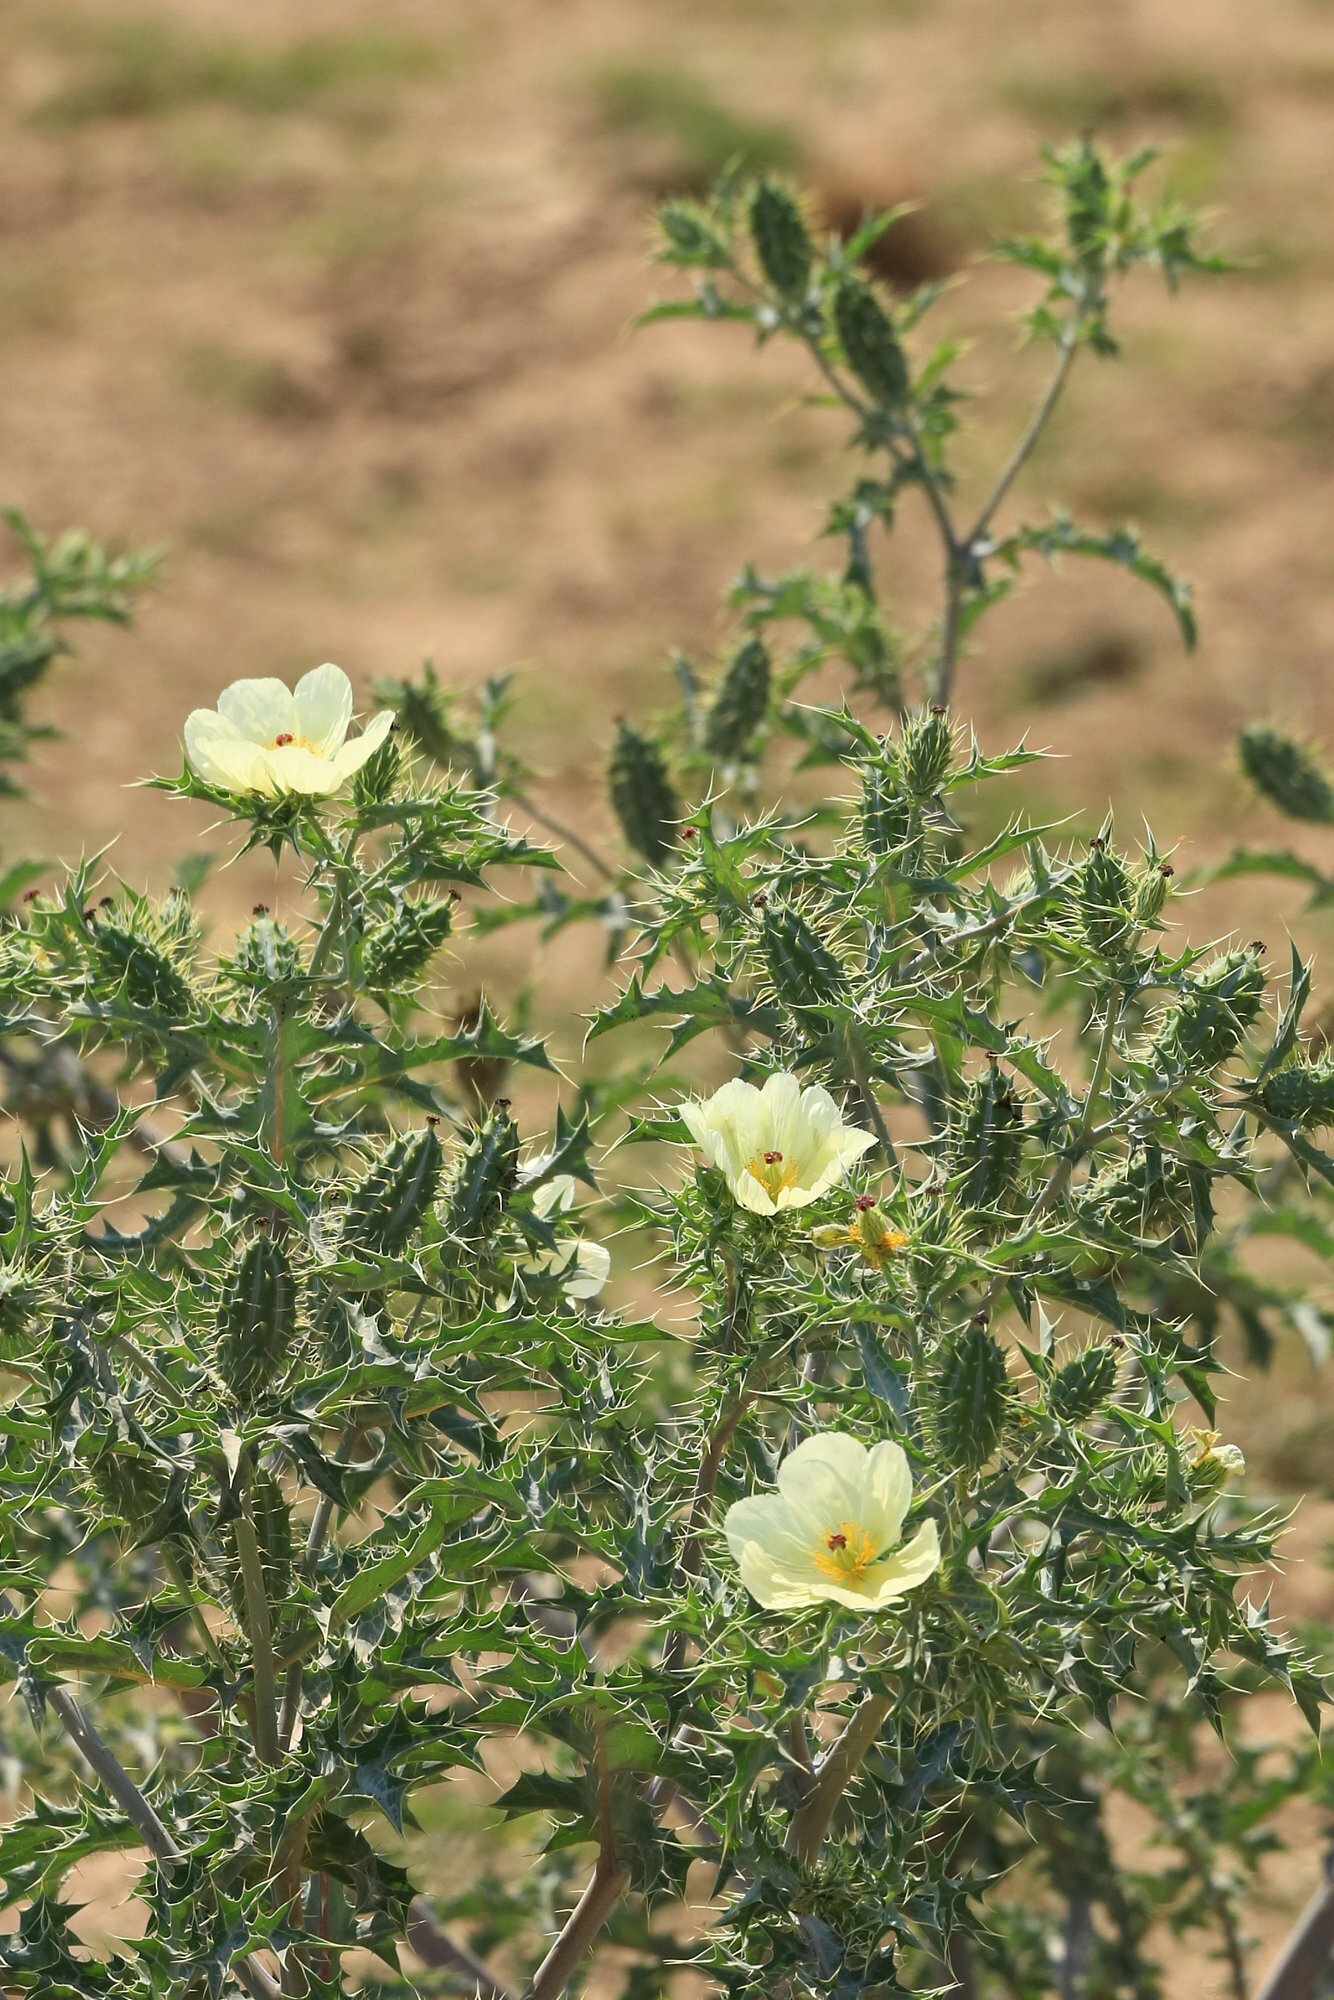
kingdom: Plantae
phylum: Tracheophyta
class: Magnoliopsida
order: Ranunculales
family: Papaveraceae
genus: Argemone
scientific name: Argemone ochroleuca
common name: White-flower mexican-poppy
